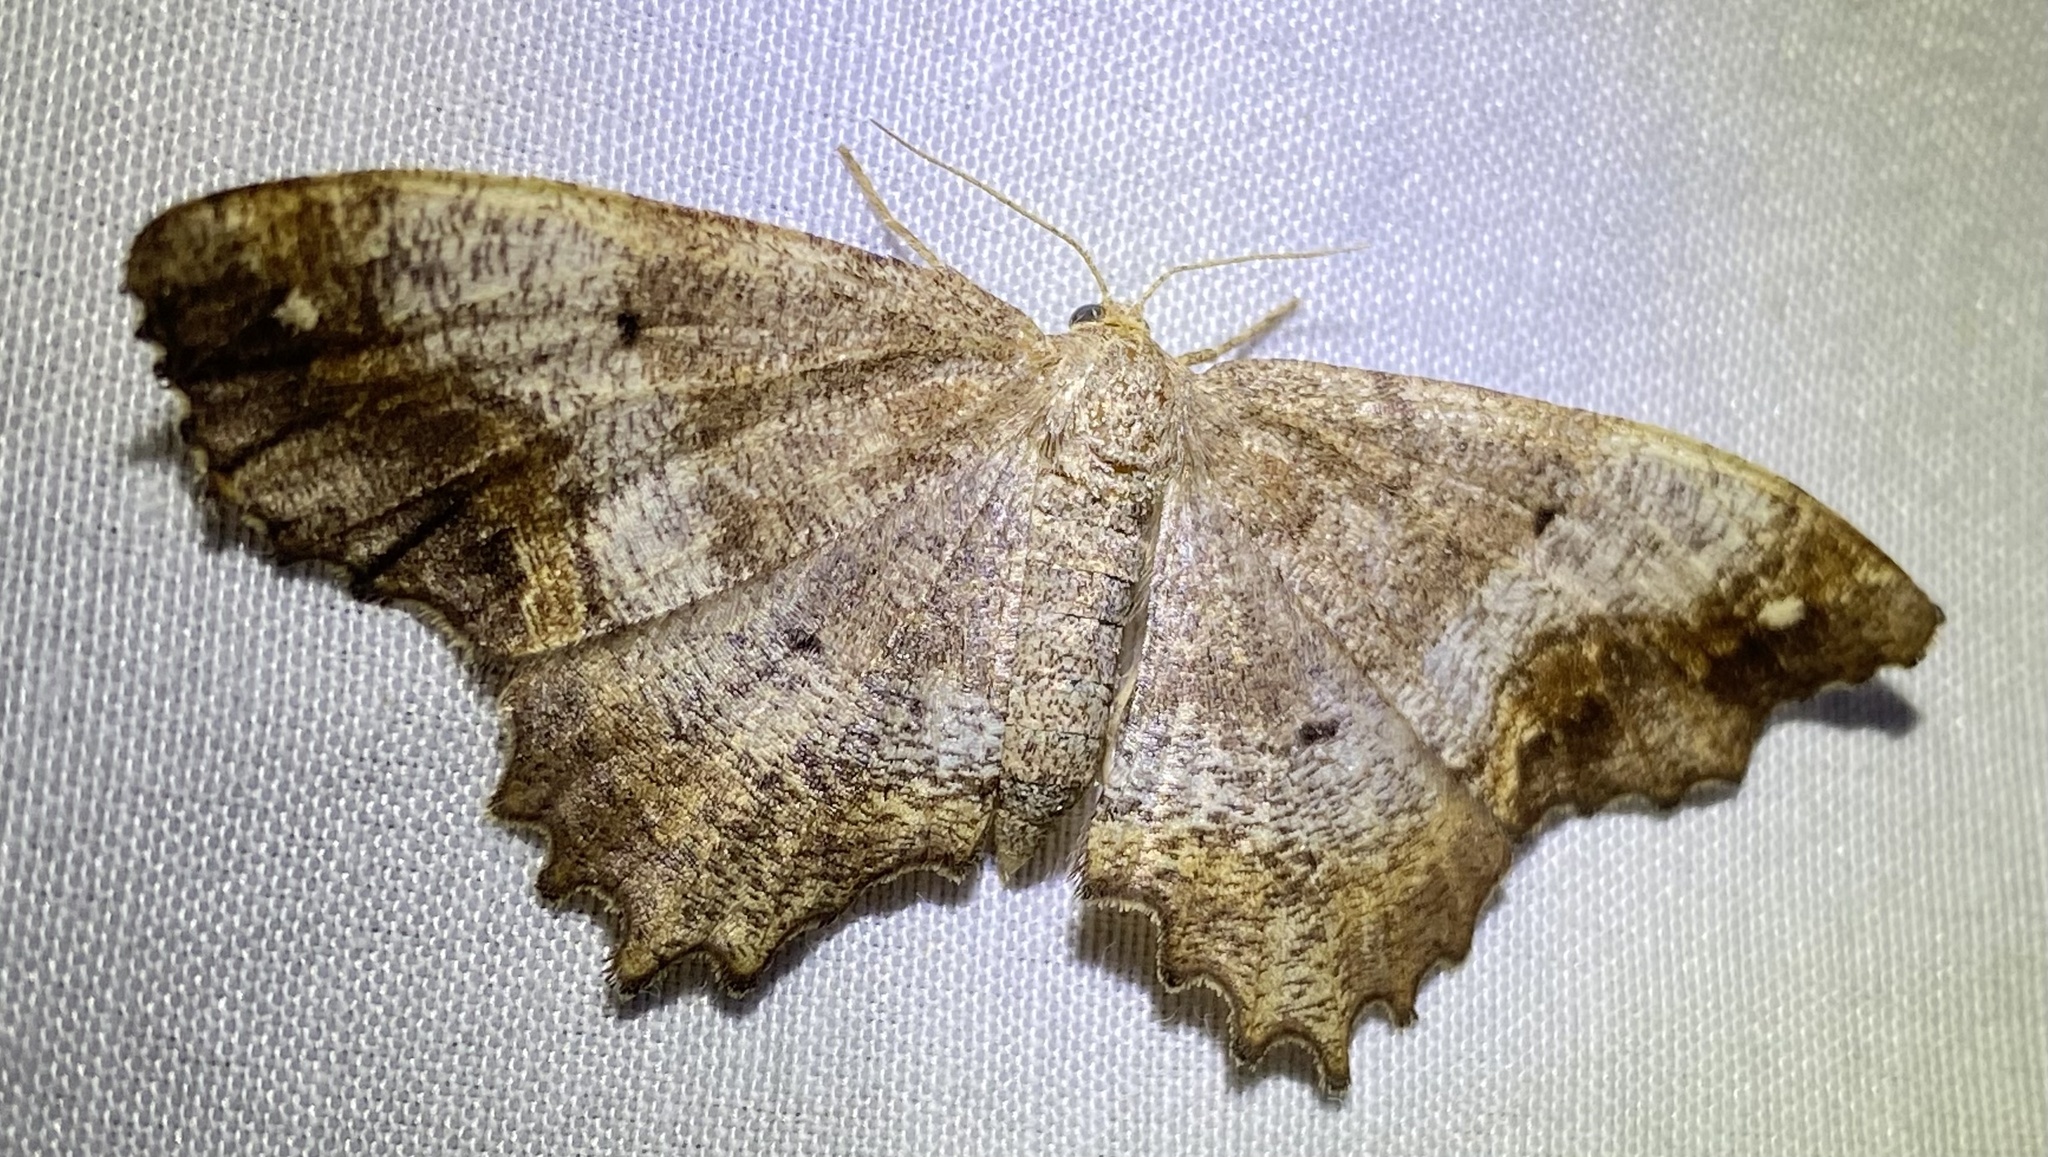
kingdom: Animalia
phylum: Arthropoda
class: Insecta
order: Lepidoptera
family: Geometridae
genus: Hypagyrtis
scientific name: Hypagyrtis unipunctata
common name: One-spotted variant
